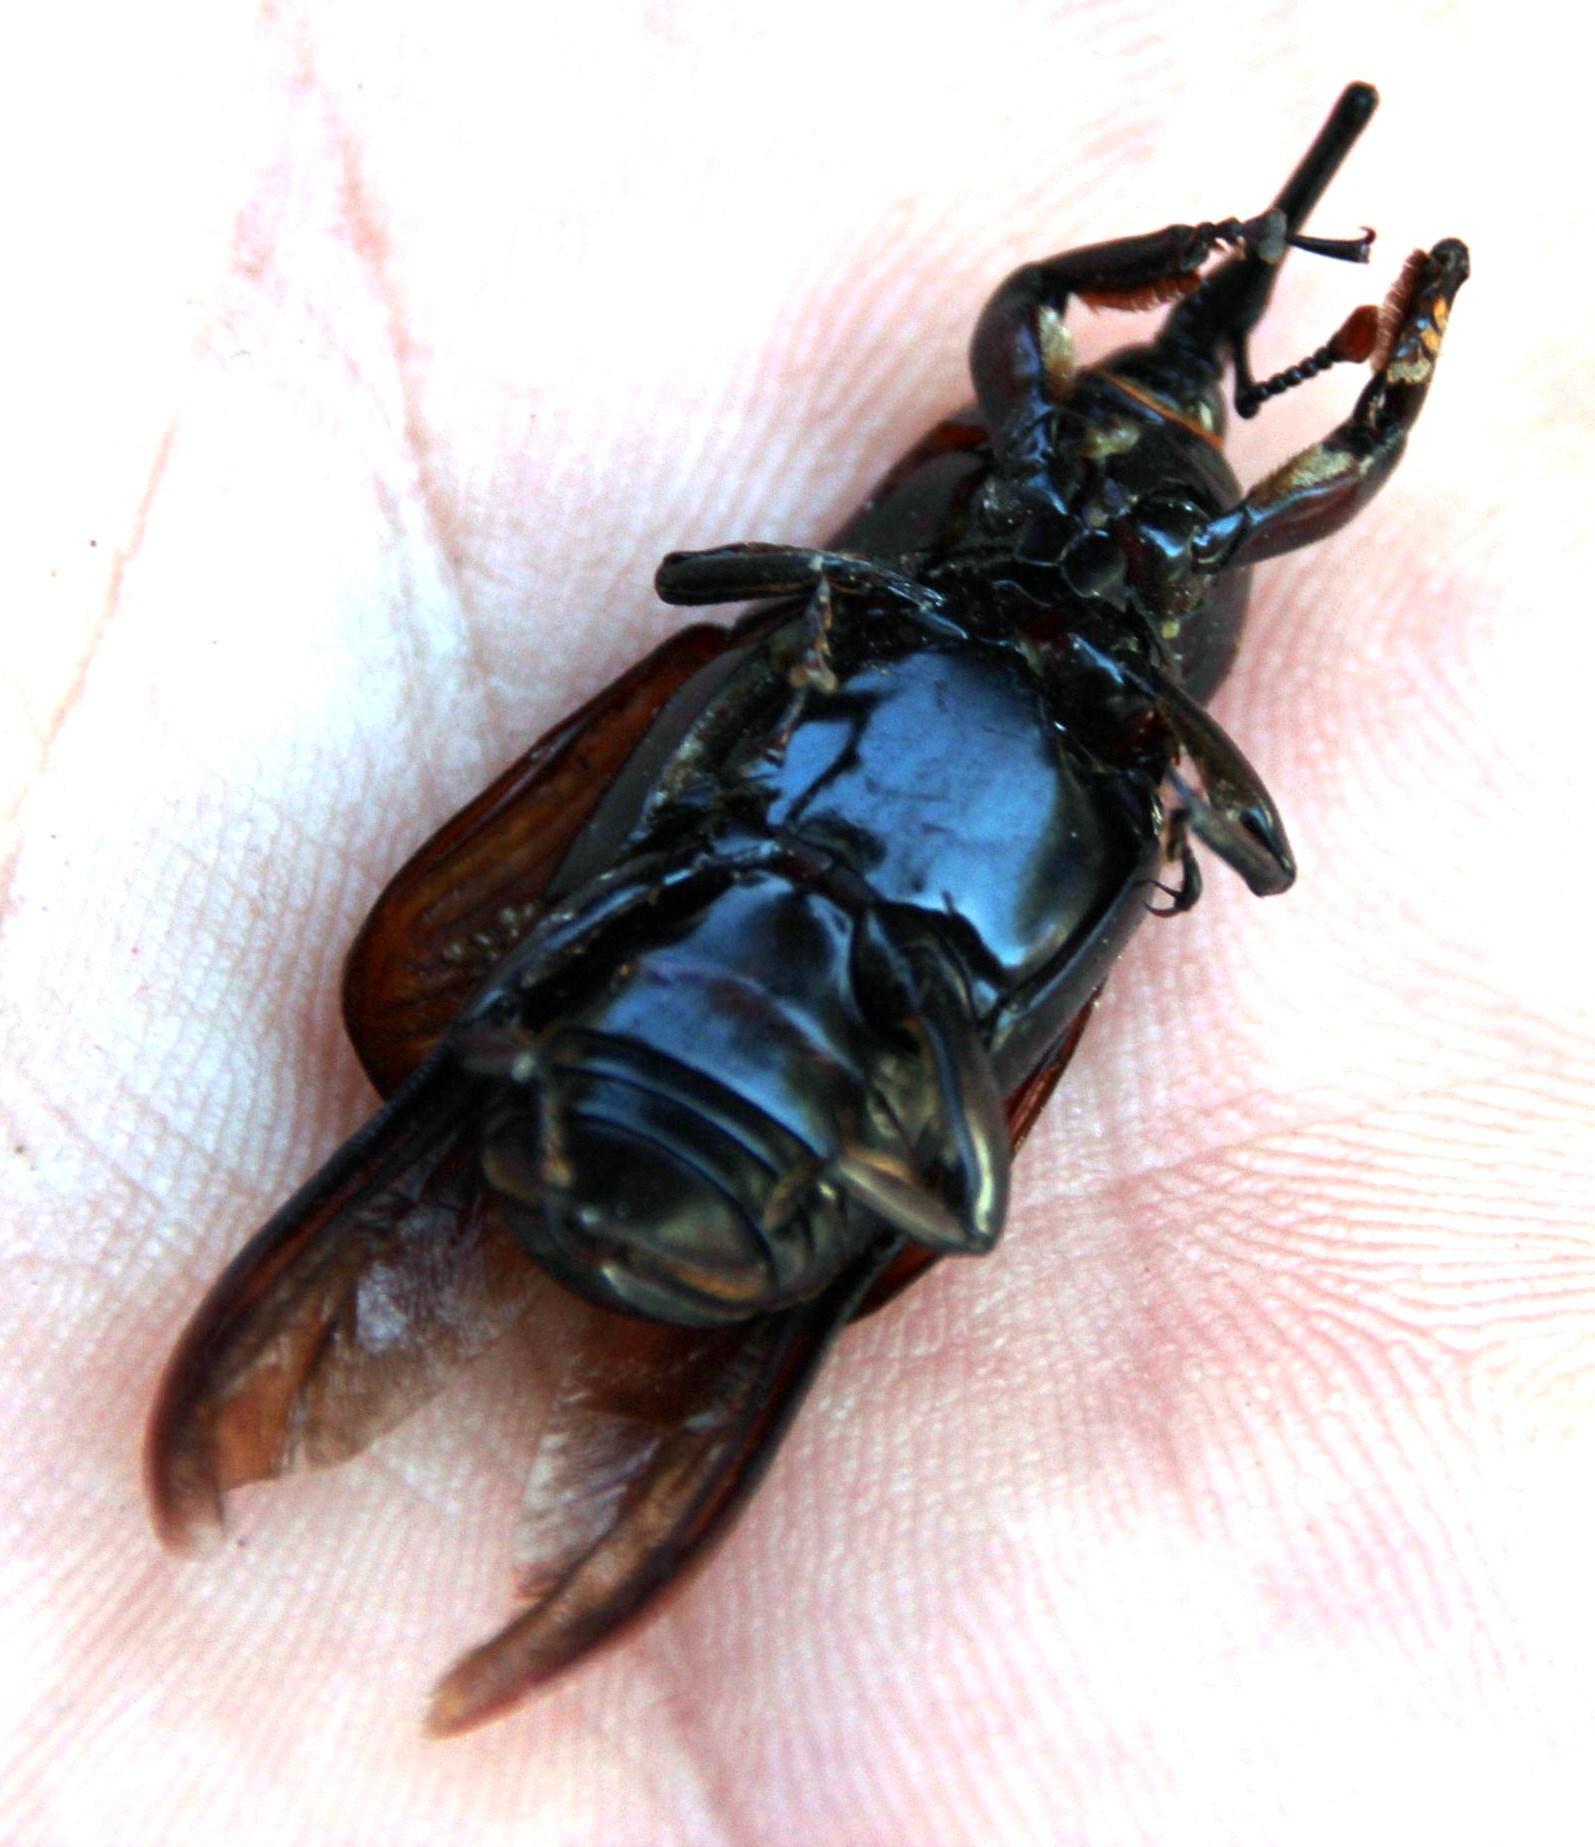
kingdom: Animalia
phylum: Arthropoda
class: Insecta
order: Coleoptera
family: Dryophthoridae
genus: Rhynchophorus
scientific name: Rhynchophorus ferrugineus
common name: Red palm weevil
